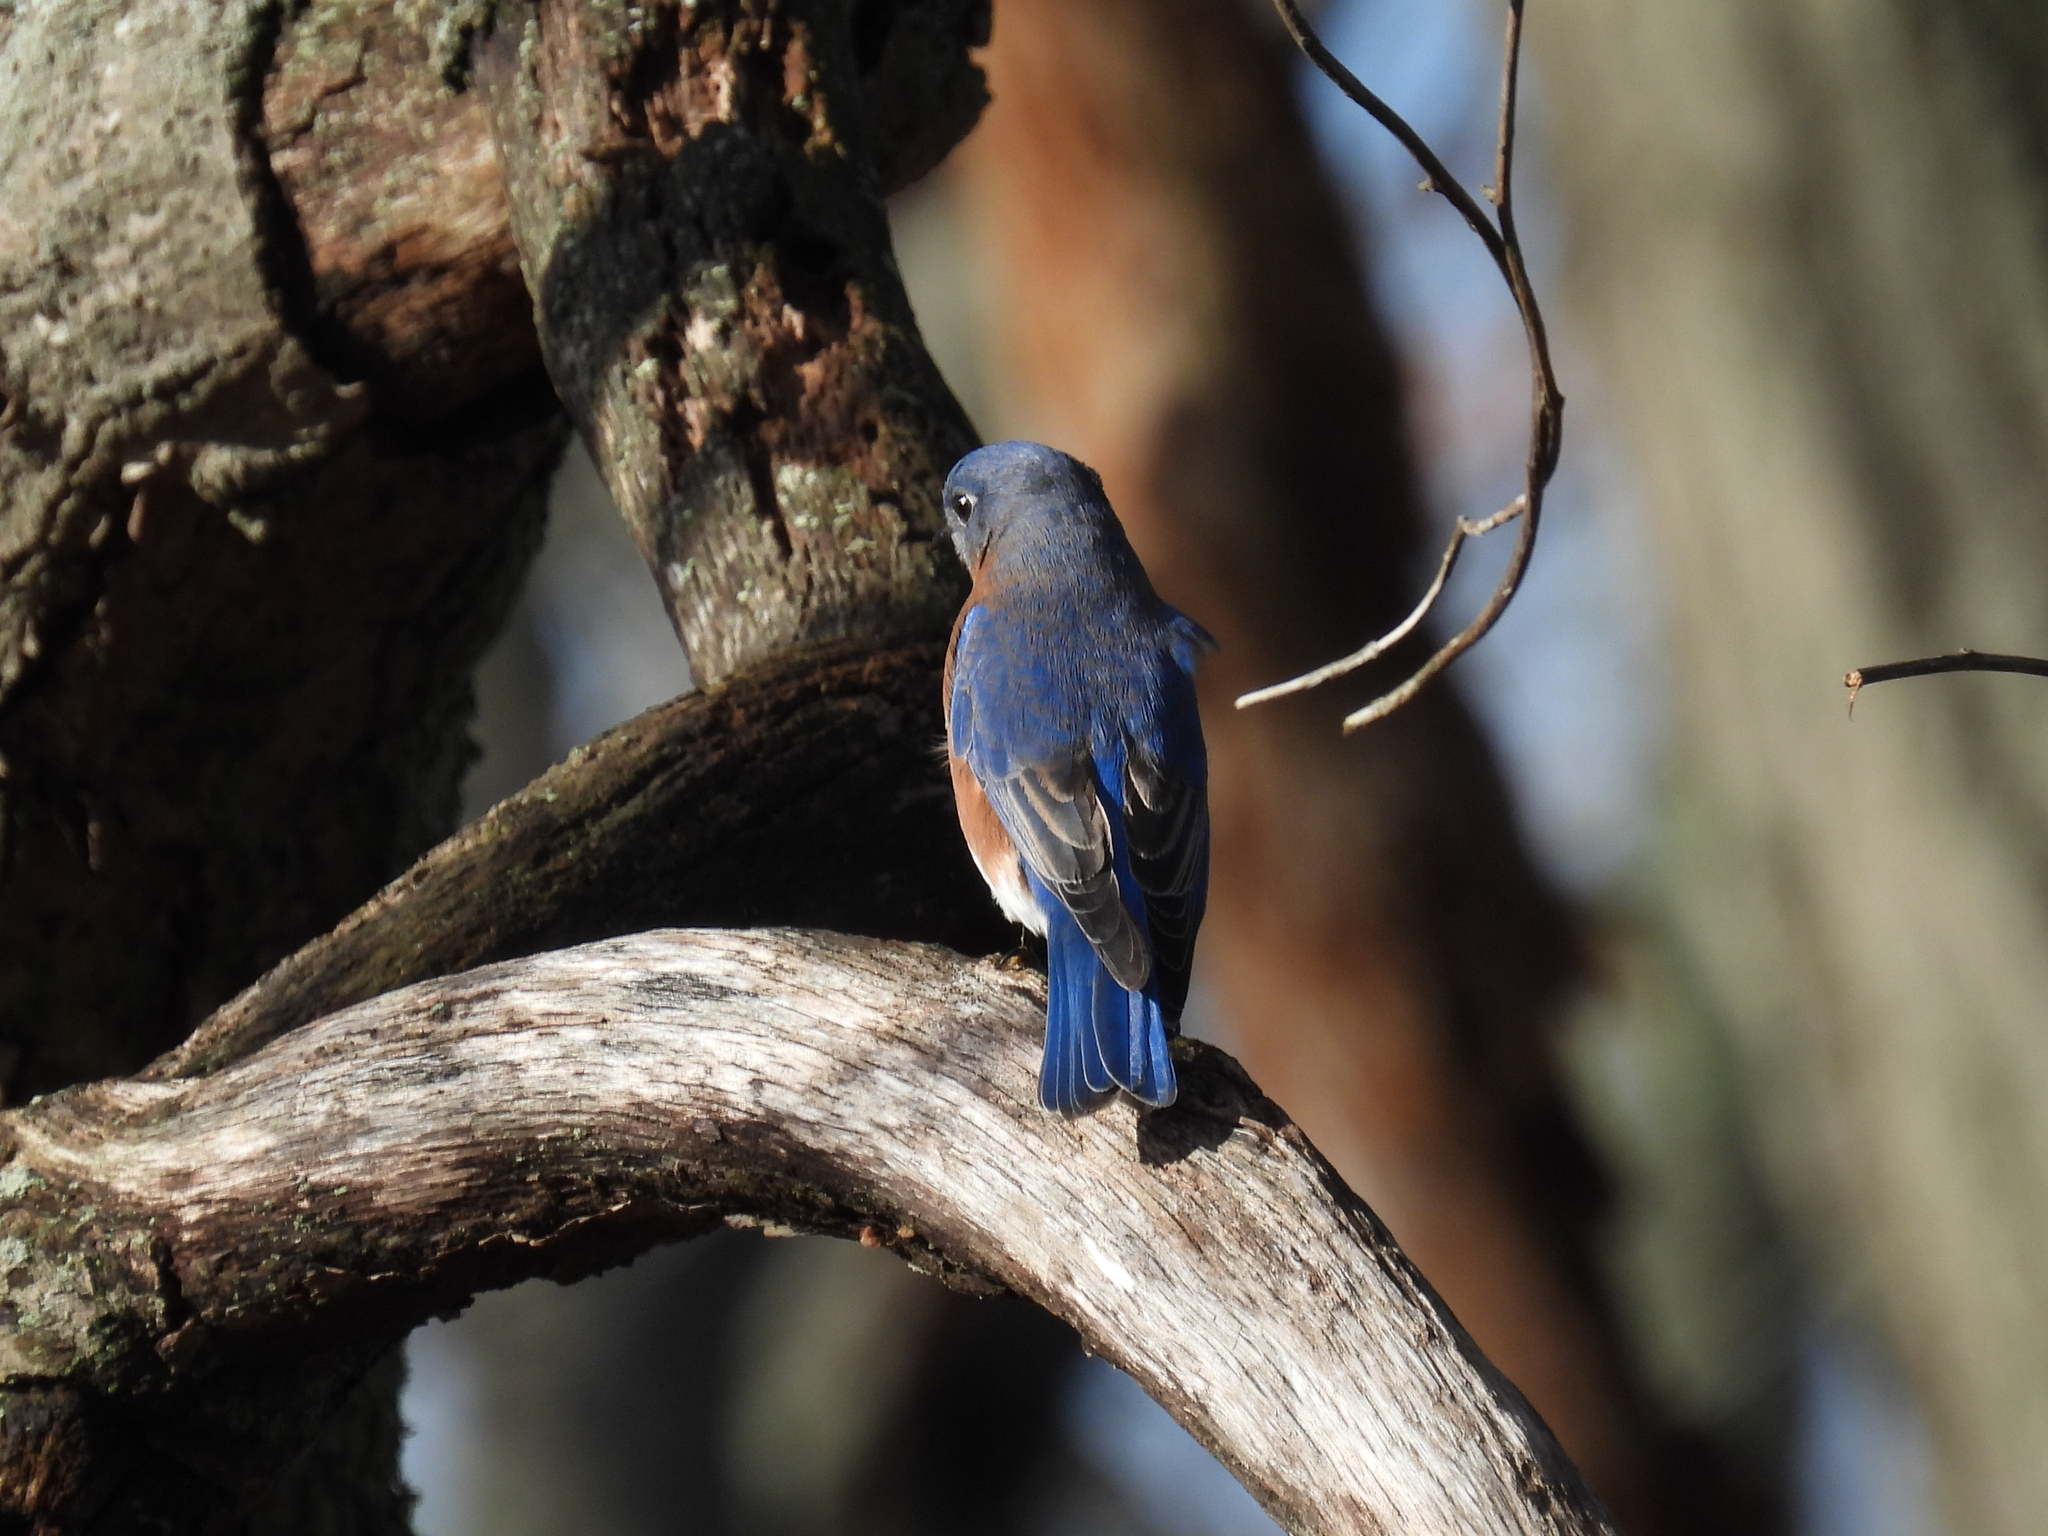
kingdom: Animalia
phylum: Chordata
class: Aves
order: Passeriformes
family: Turdidae
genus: Sialia
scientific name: Sialia sialis
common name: Eastern bluebird
